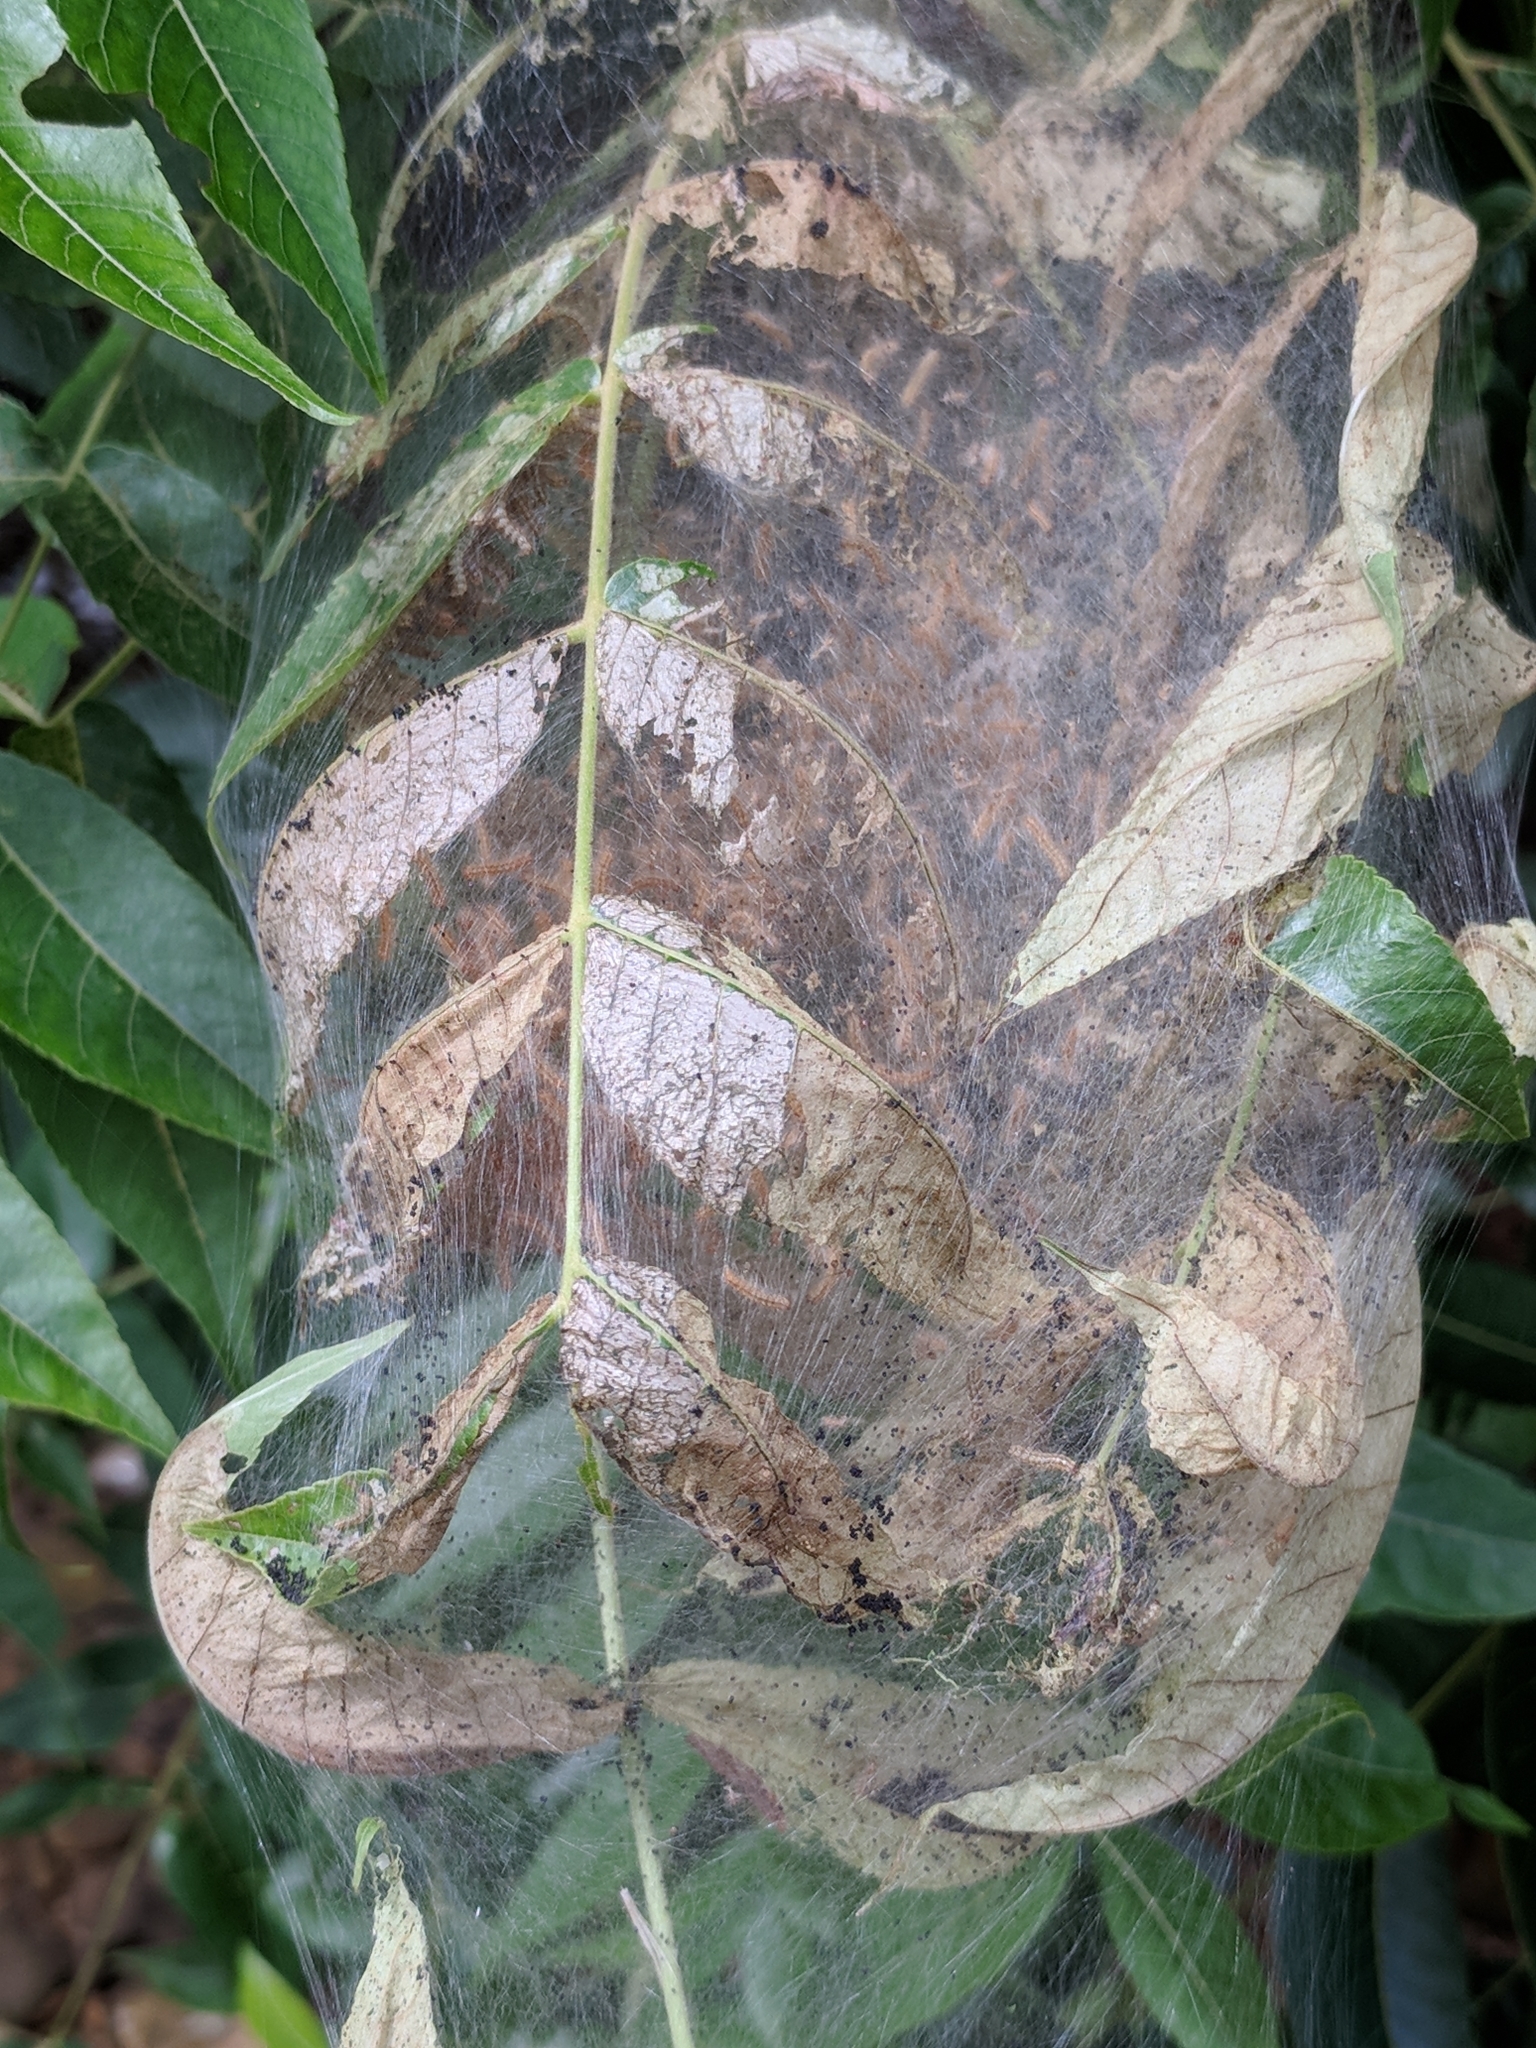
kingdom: Animalia
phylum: Arthropoda
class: Insecta
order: Lepidoptera
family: Erebidae
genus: Hyphantria
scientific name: Hyphantria cunea
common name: American white moth
